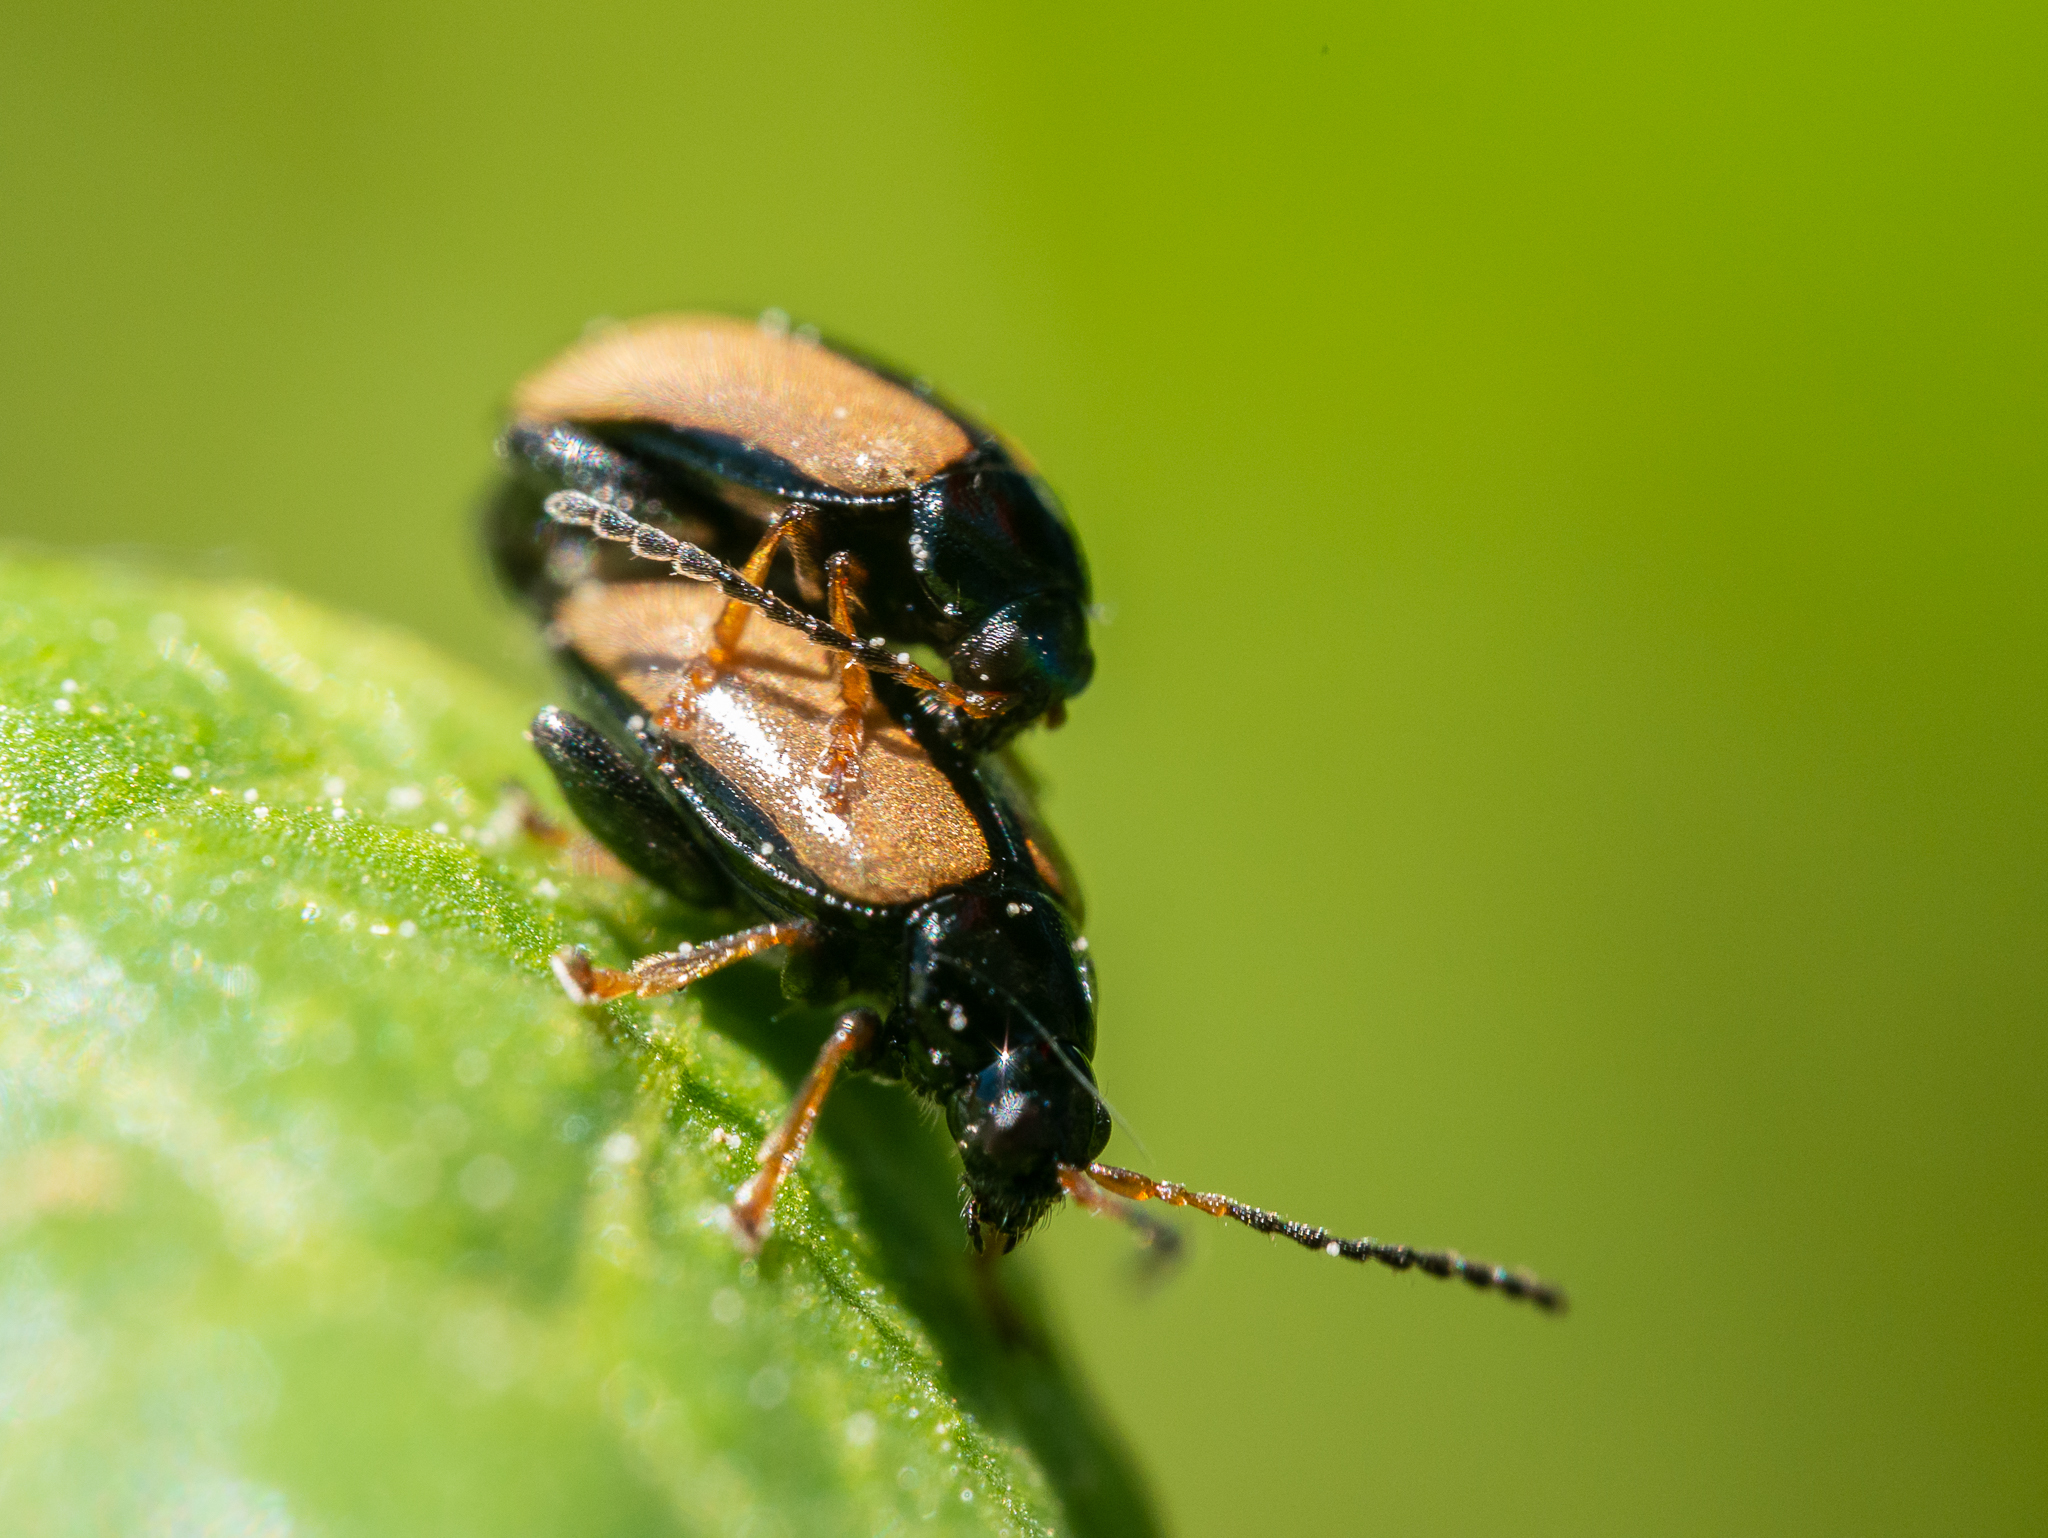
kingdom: Animalia
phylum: Arthropoda
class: Insecta
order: Coleoptera
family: Chrysomelidae
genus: Phyllotreta
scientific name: Phyllotreta armoraciae
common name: Horseradish flea beetle
